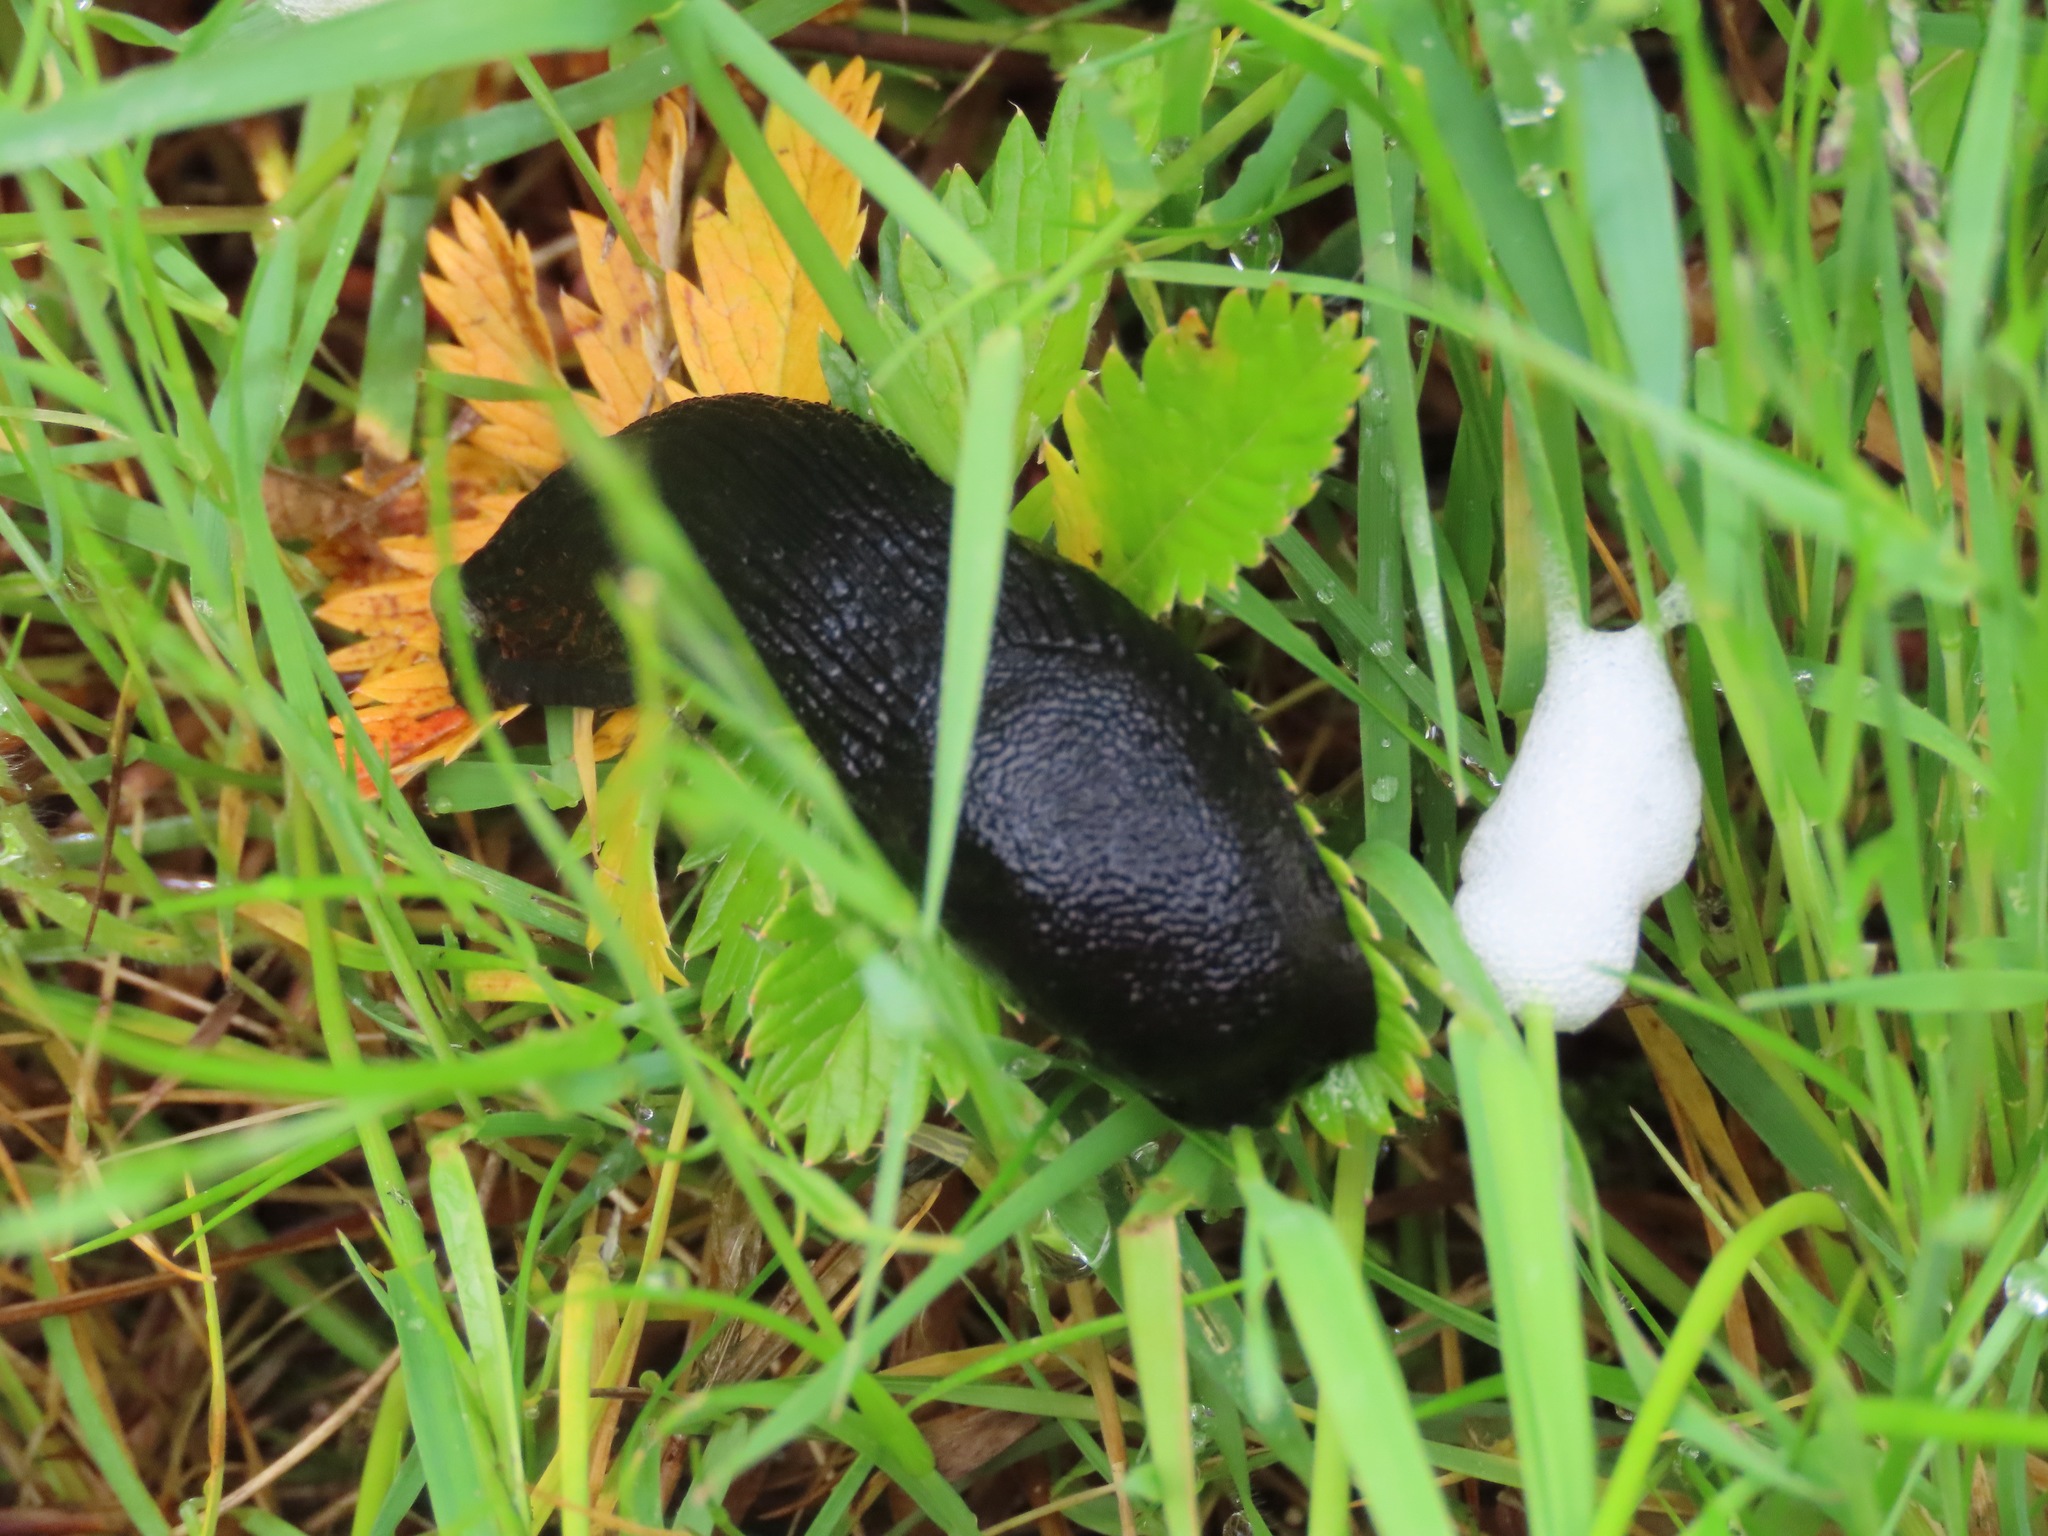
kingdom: Animalia
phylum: Mollusca
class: Gastropoda
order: Stylommatophora
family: Arionidae
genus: Arion
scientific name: Arion
